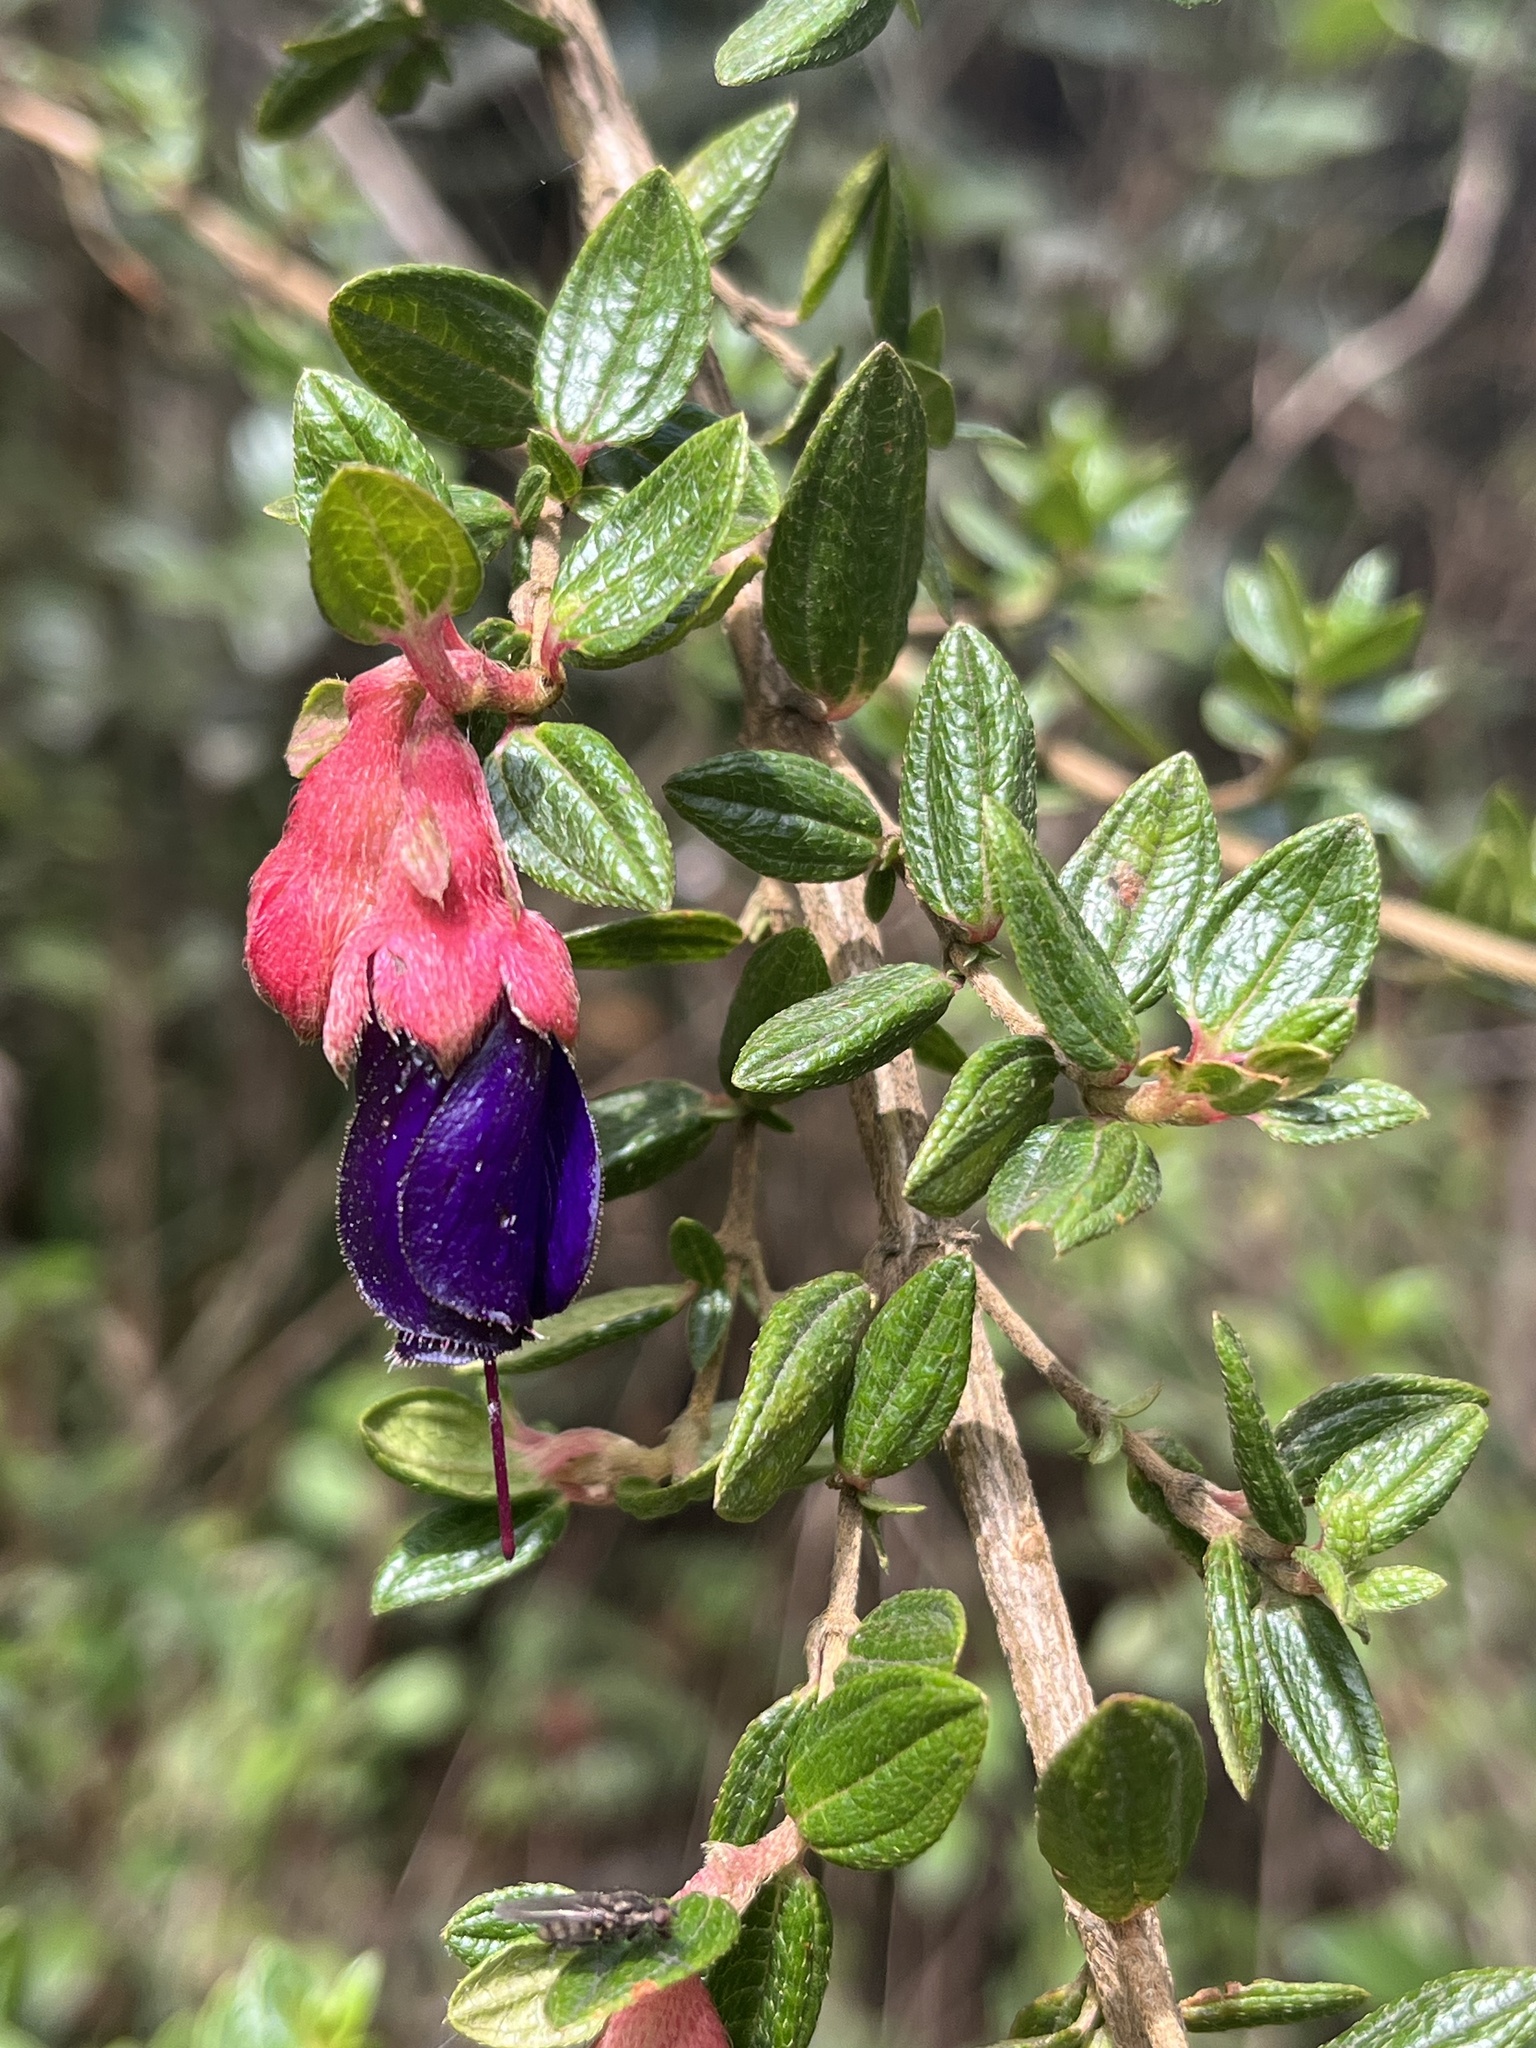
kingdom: Plantae
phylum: Tracheophyta
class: Magnoliopsida
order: Myrtales
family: Melastomataceae
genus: Brachyotum
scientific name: Brachyotum strigosum
